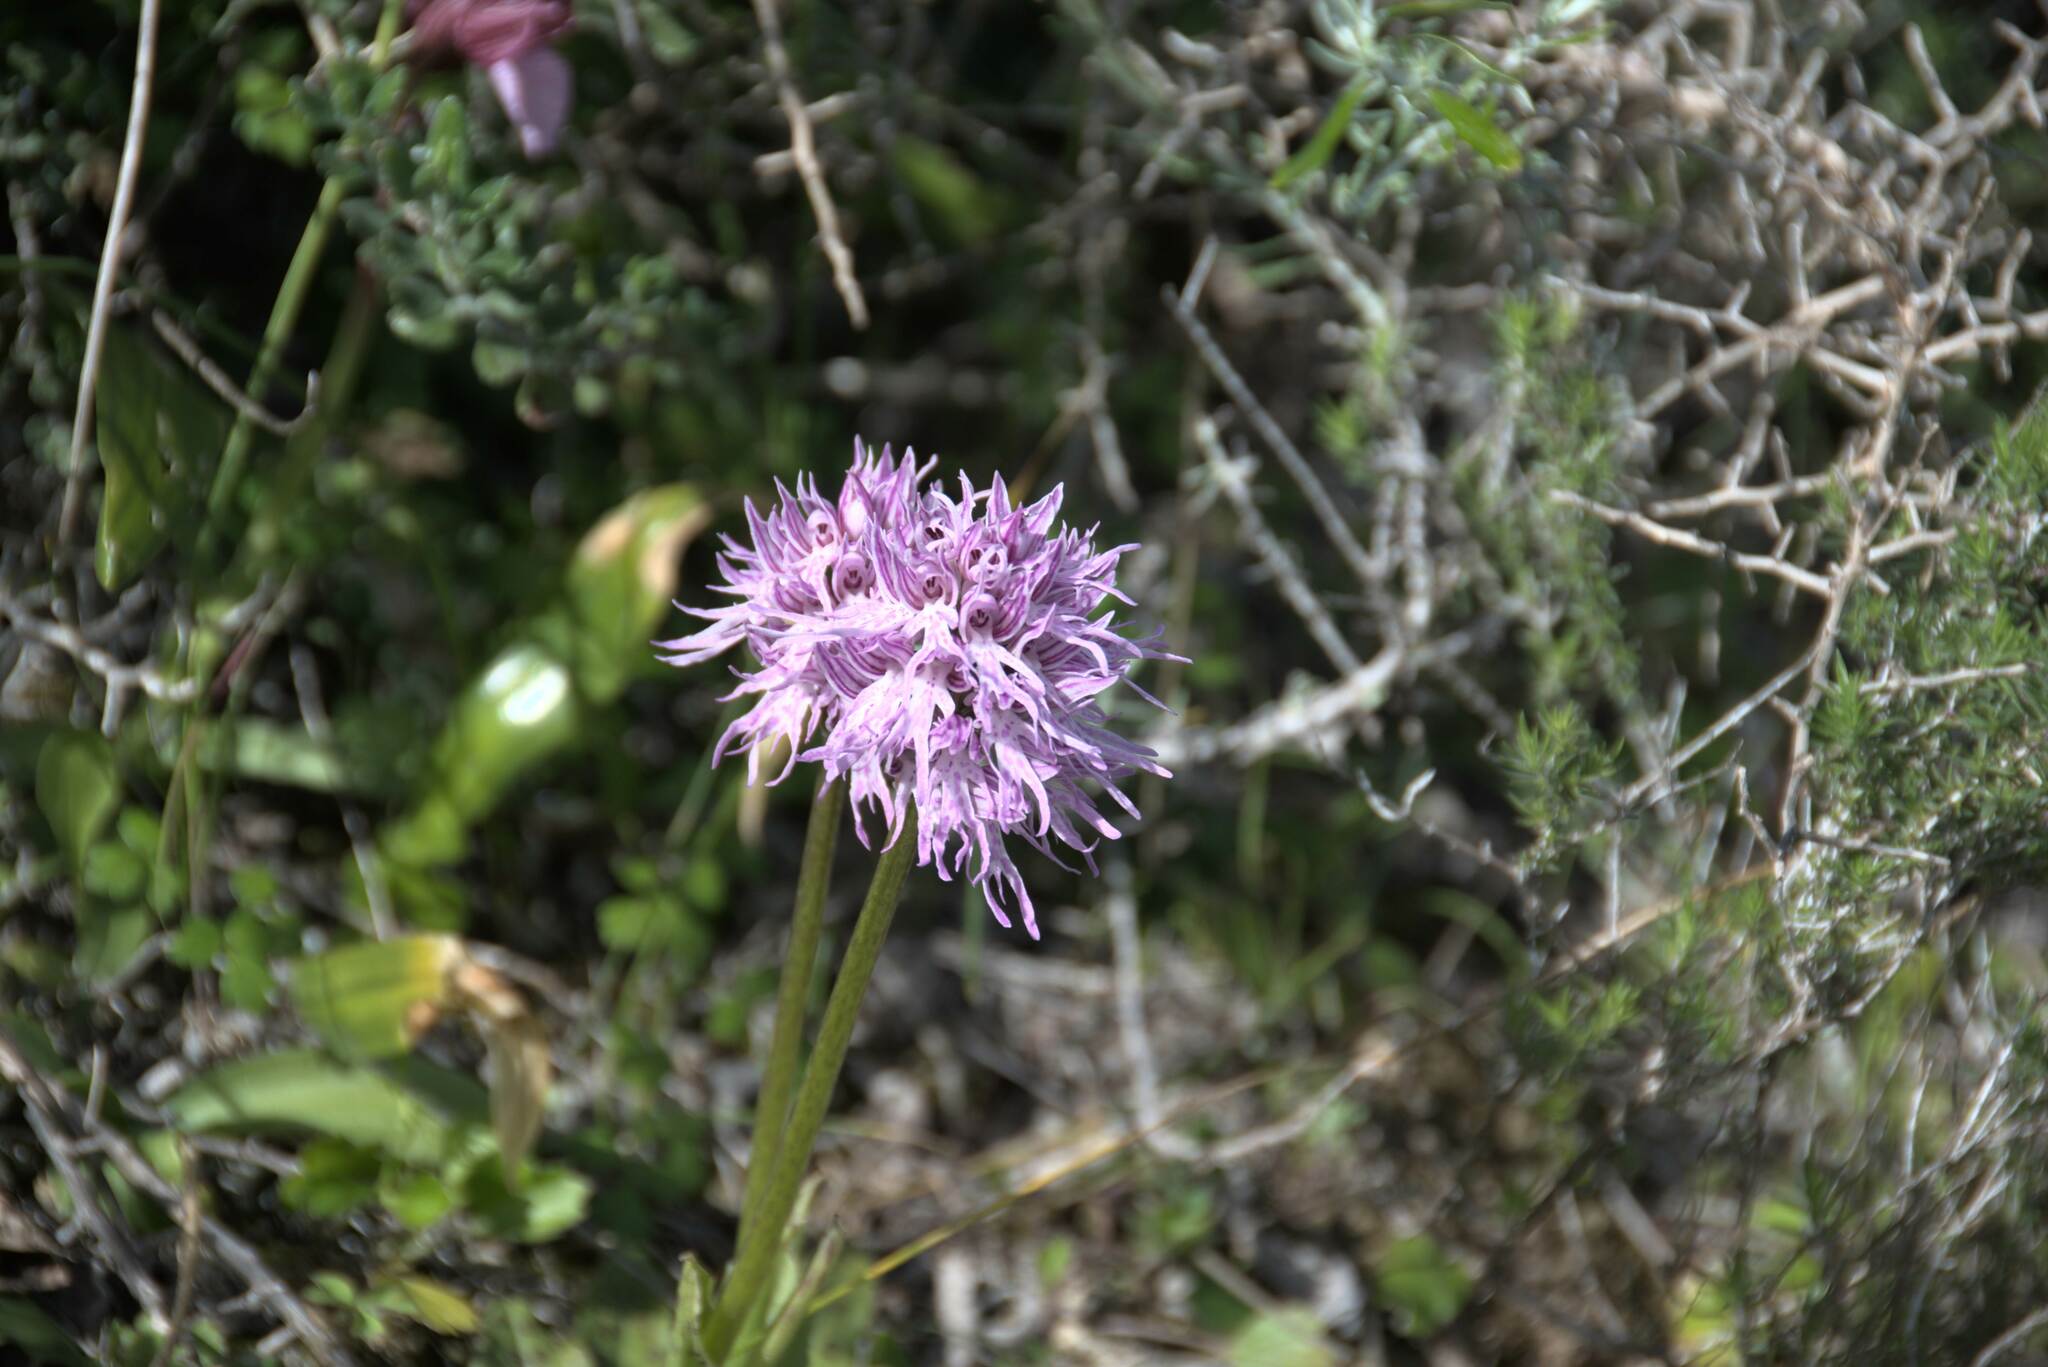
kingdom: Plantae
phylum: Tracheophyta
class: Liliopsida
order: Asparagales
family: Orchidaceae
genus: Orchis
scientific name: Orchis italica
